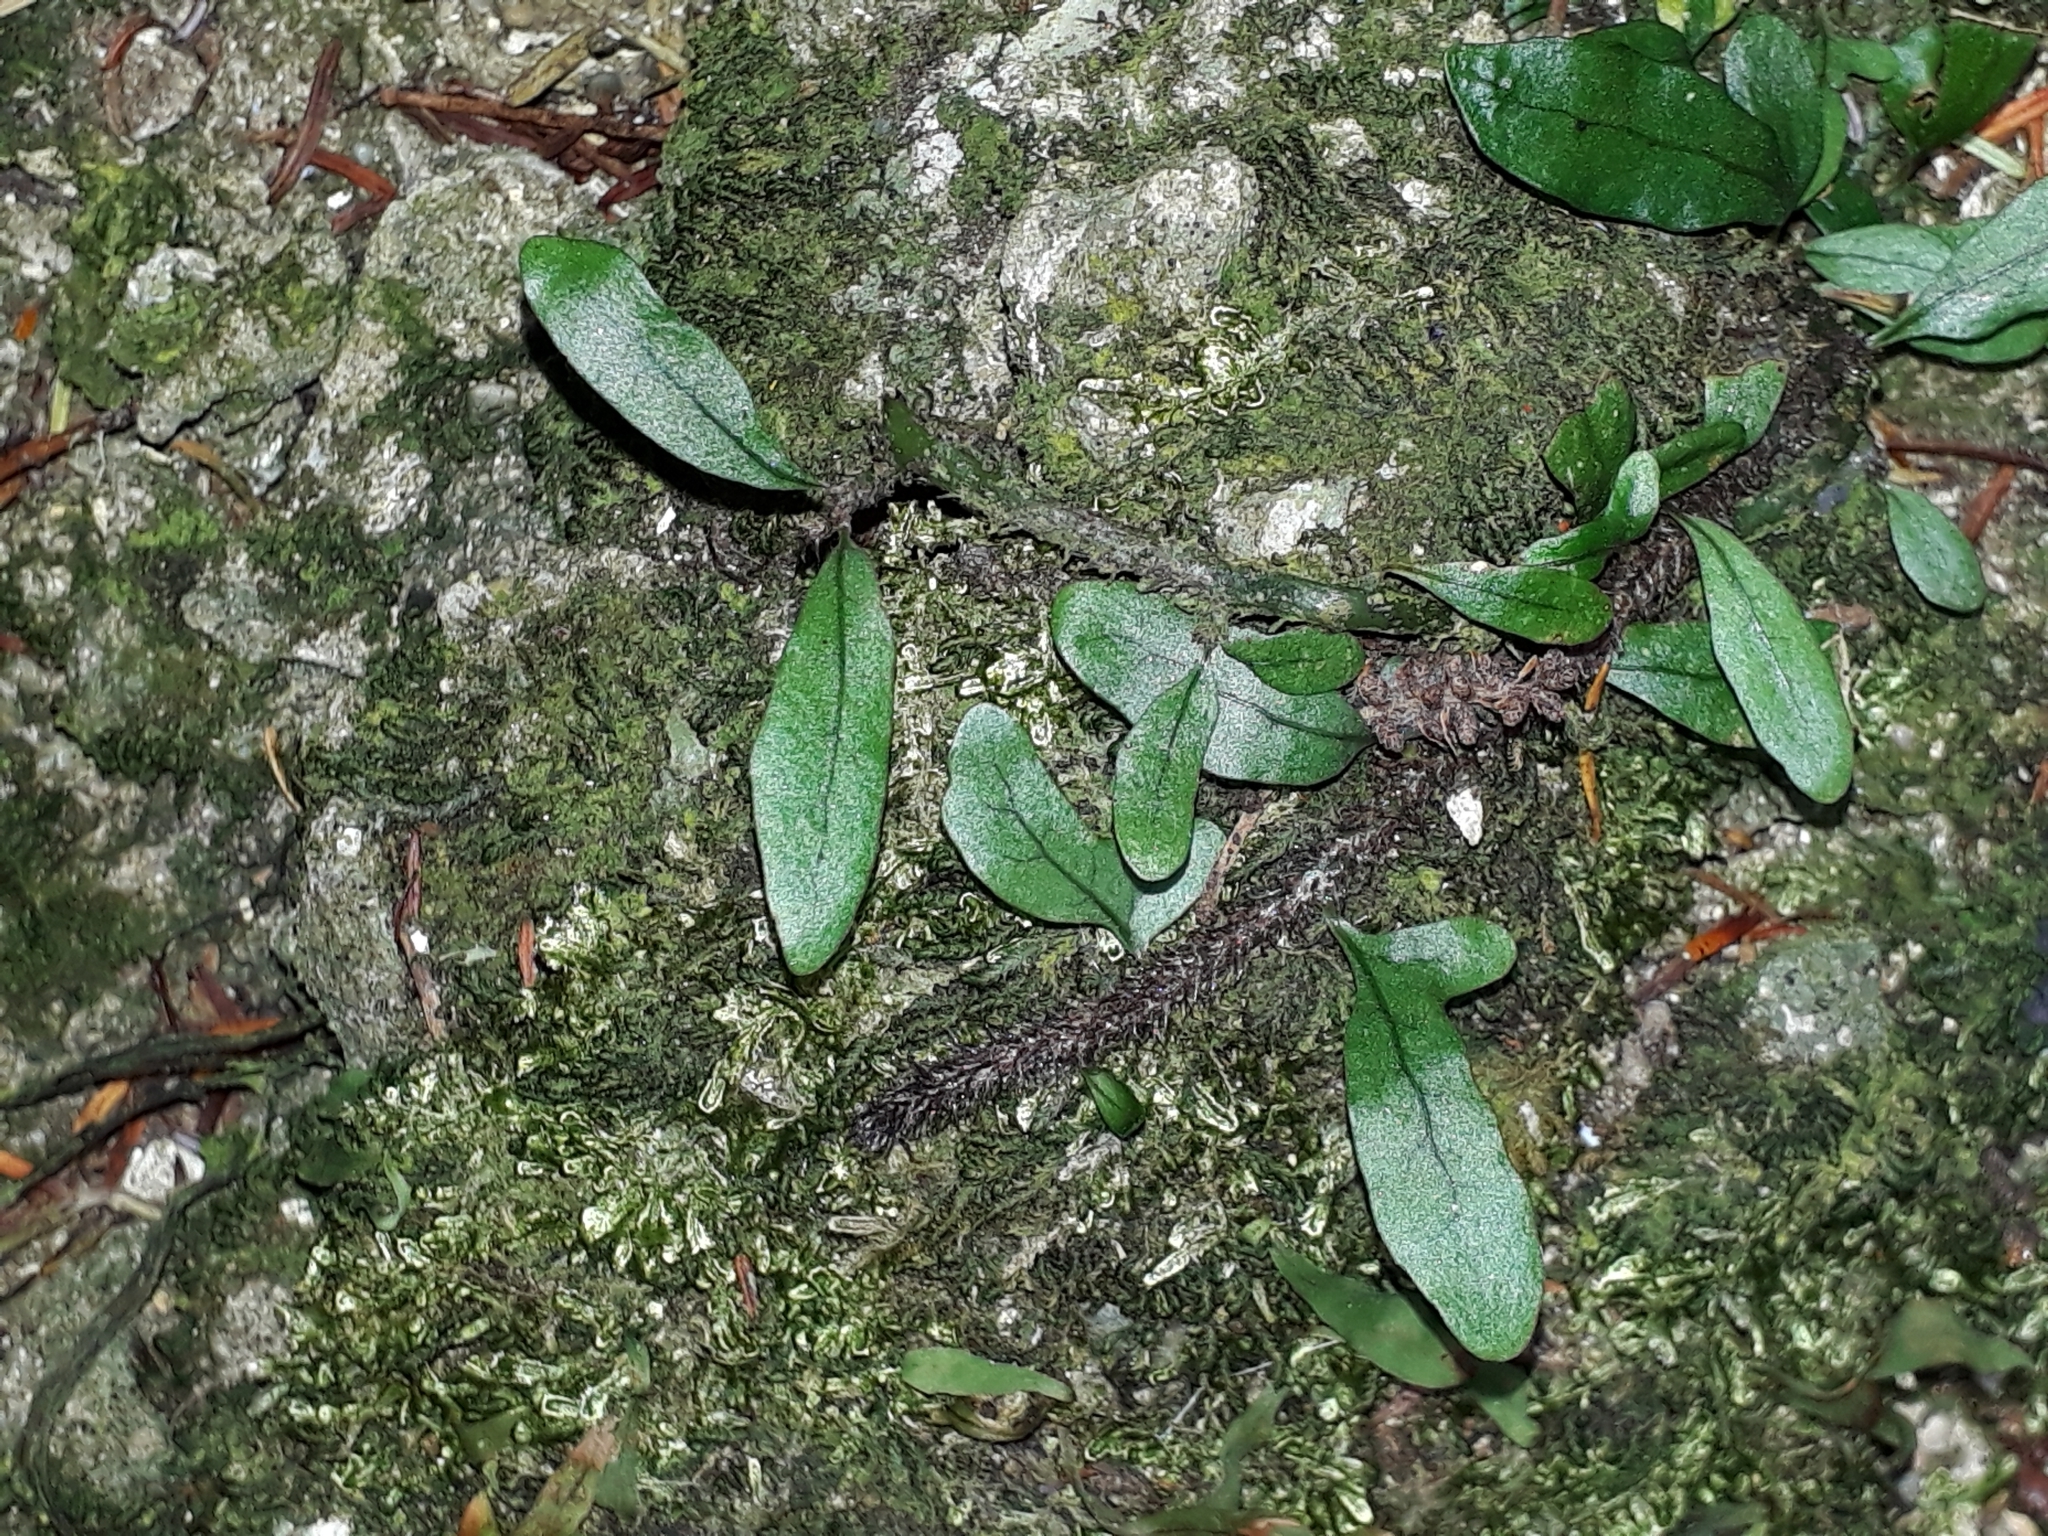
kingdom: Plantae
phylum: Tracheophyta
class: Polypodiopsida
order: Polypodiales
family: Polypodiaceae
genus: Lecanopteris
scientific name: Lecanopteris scandens
